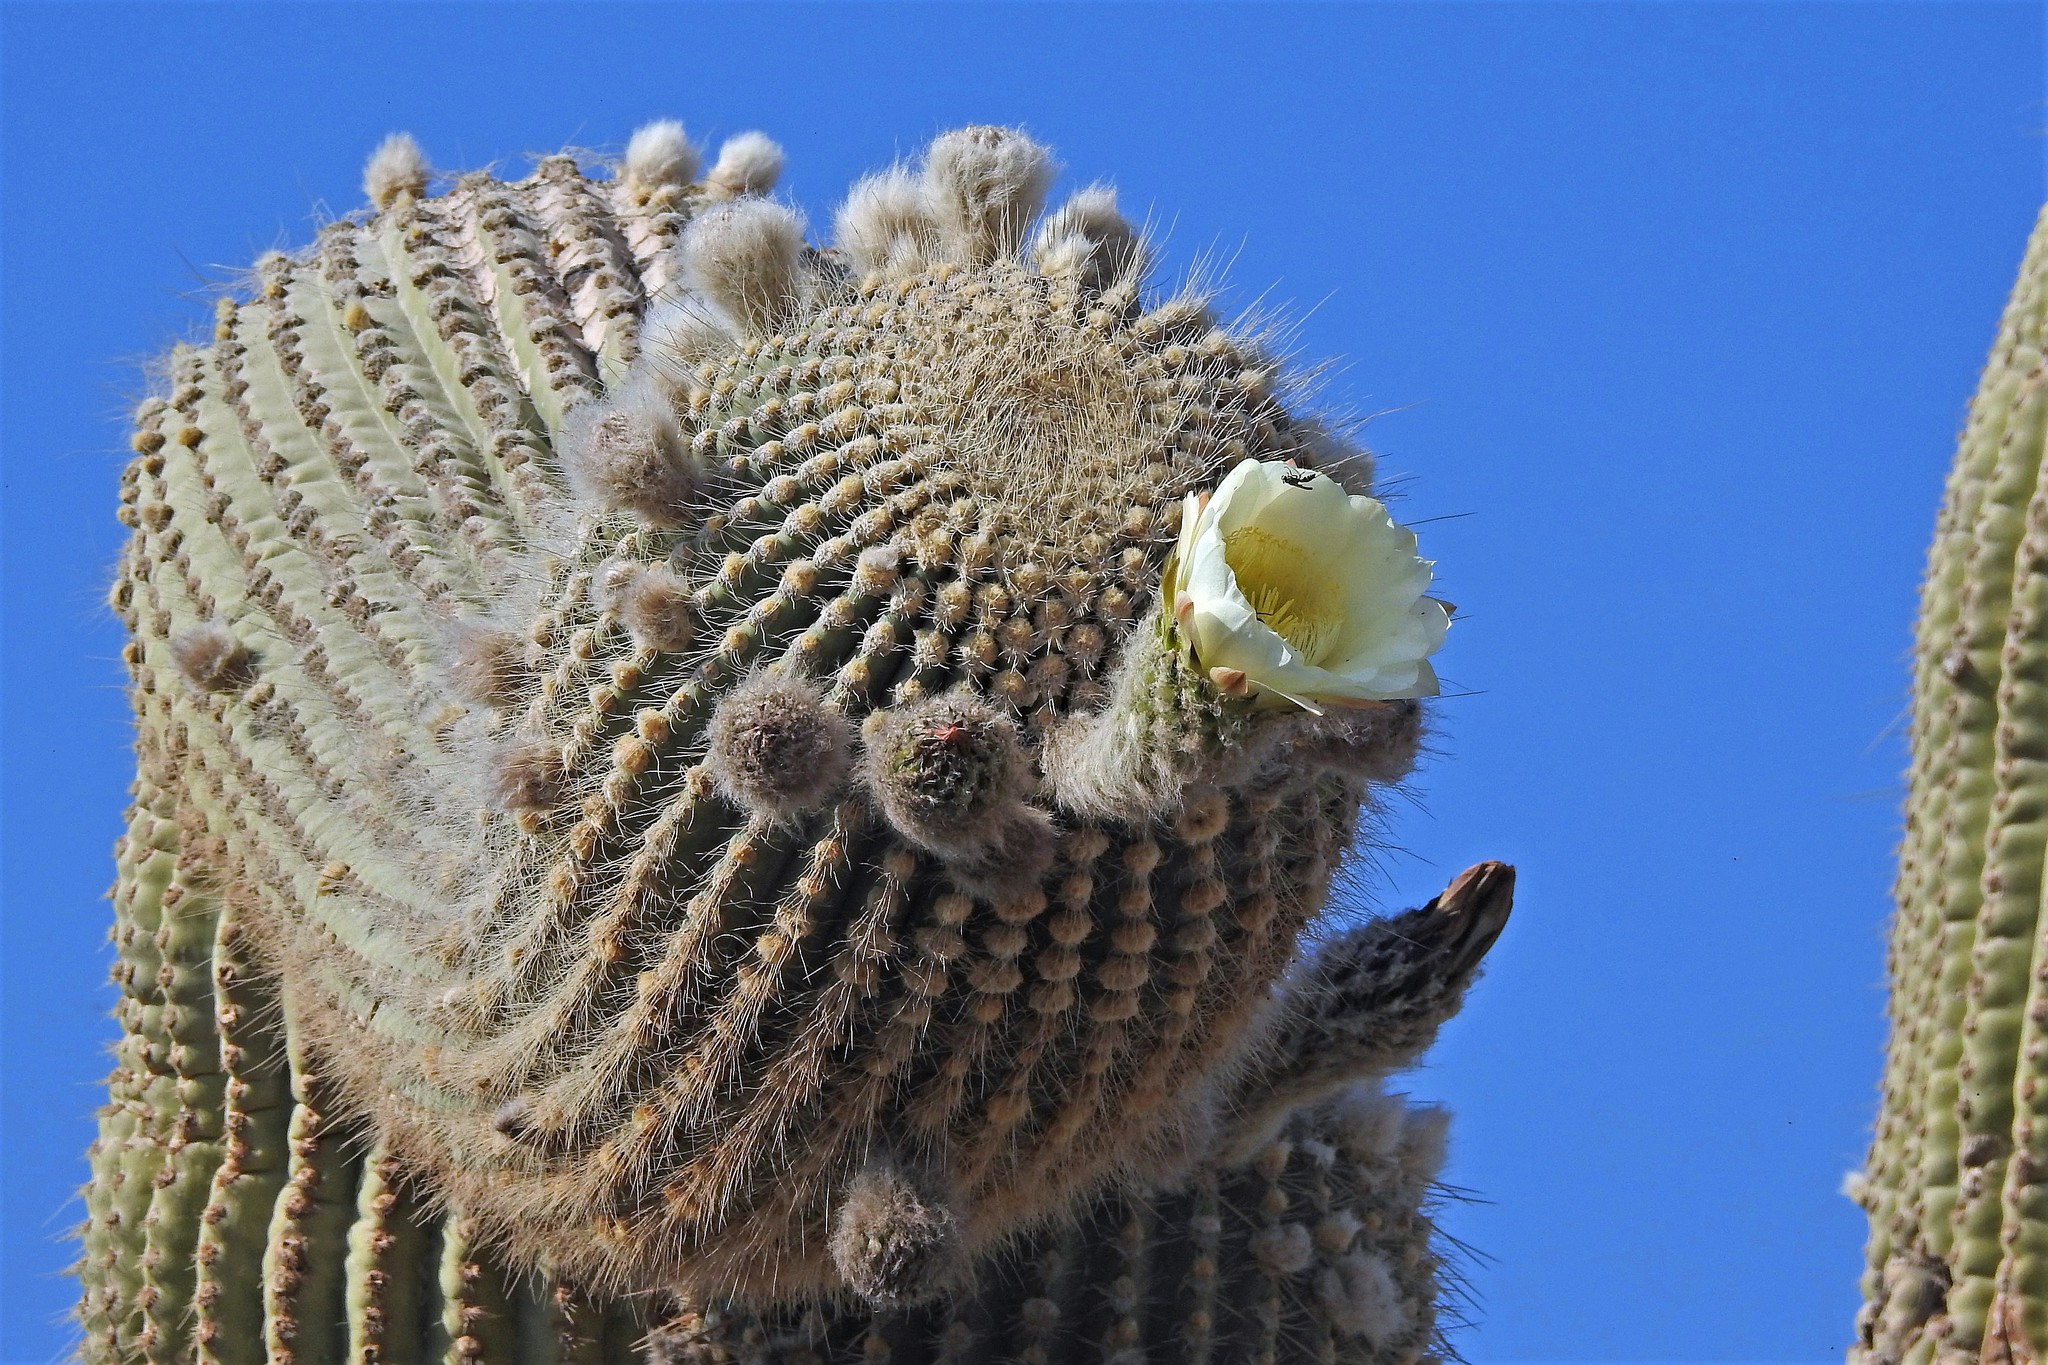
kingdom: Plantae
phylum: Tracheophyta
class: Magnoliopsida
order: Caryophyllales
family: Cactaceae
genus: Leucostele
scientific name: Leucostele atacamensis
